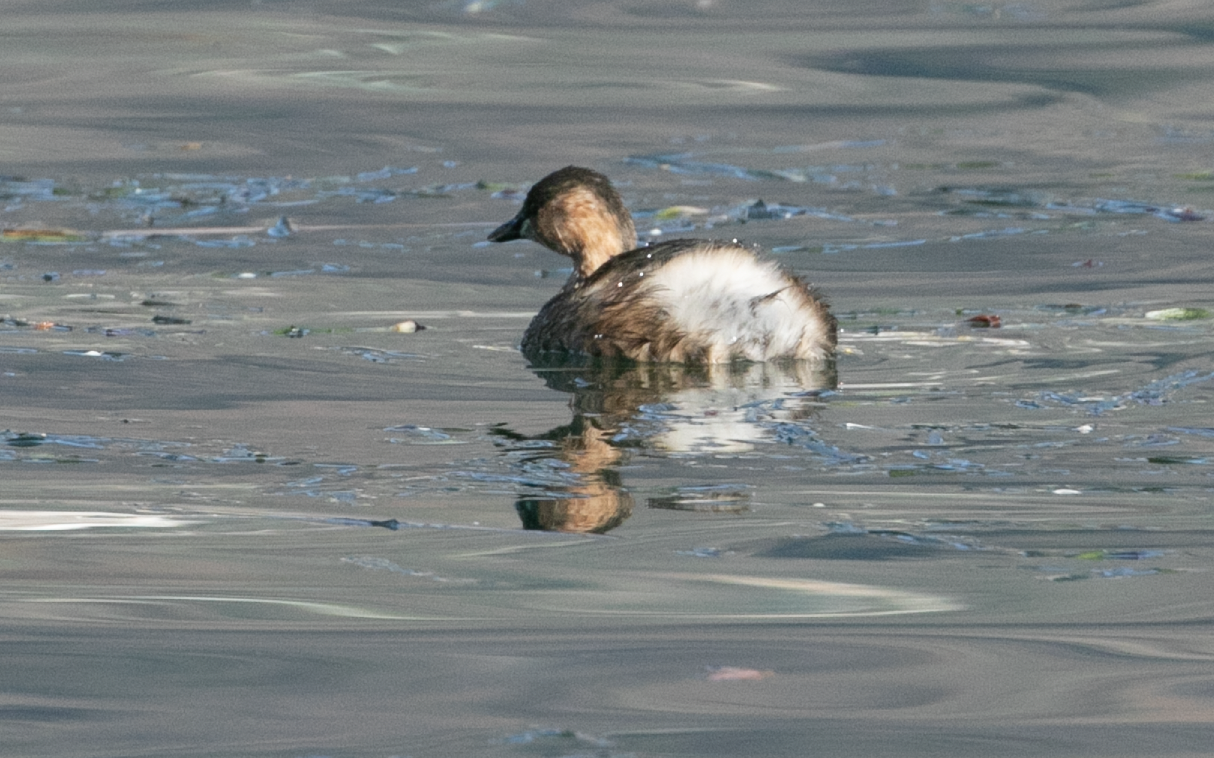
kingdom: Animalia
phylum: Chordata
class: Aves
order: Podicipediformes
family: Podicipedidae
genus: Tachybaptus
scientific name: Tachybaptus ruficollis
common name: Little grebe
